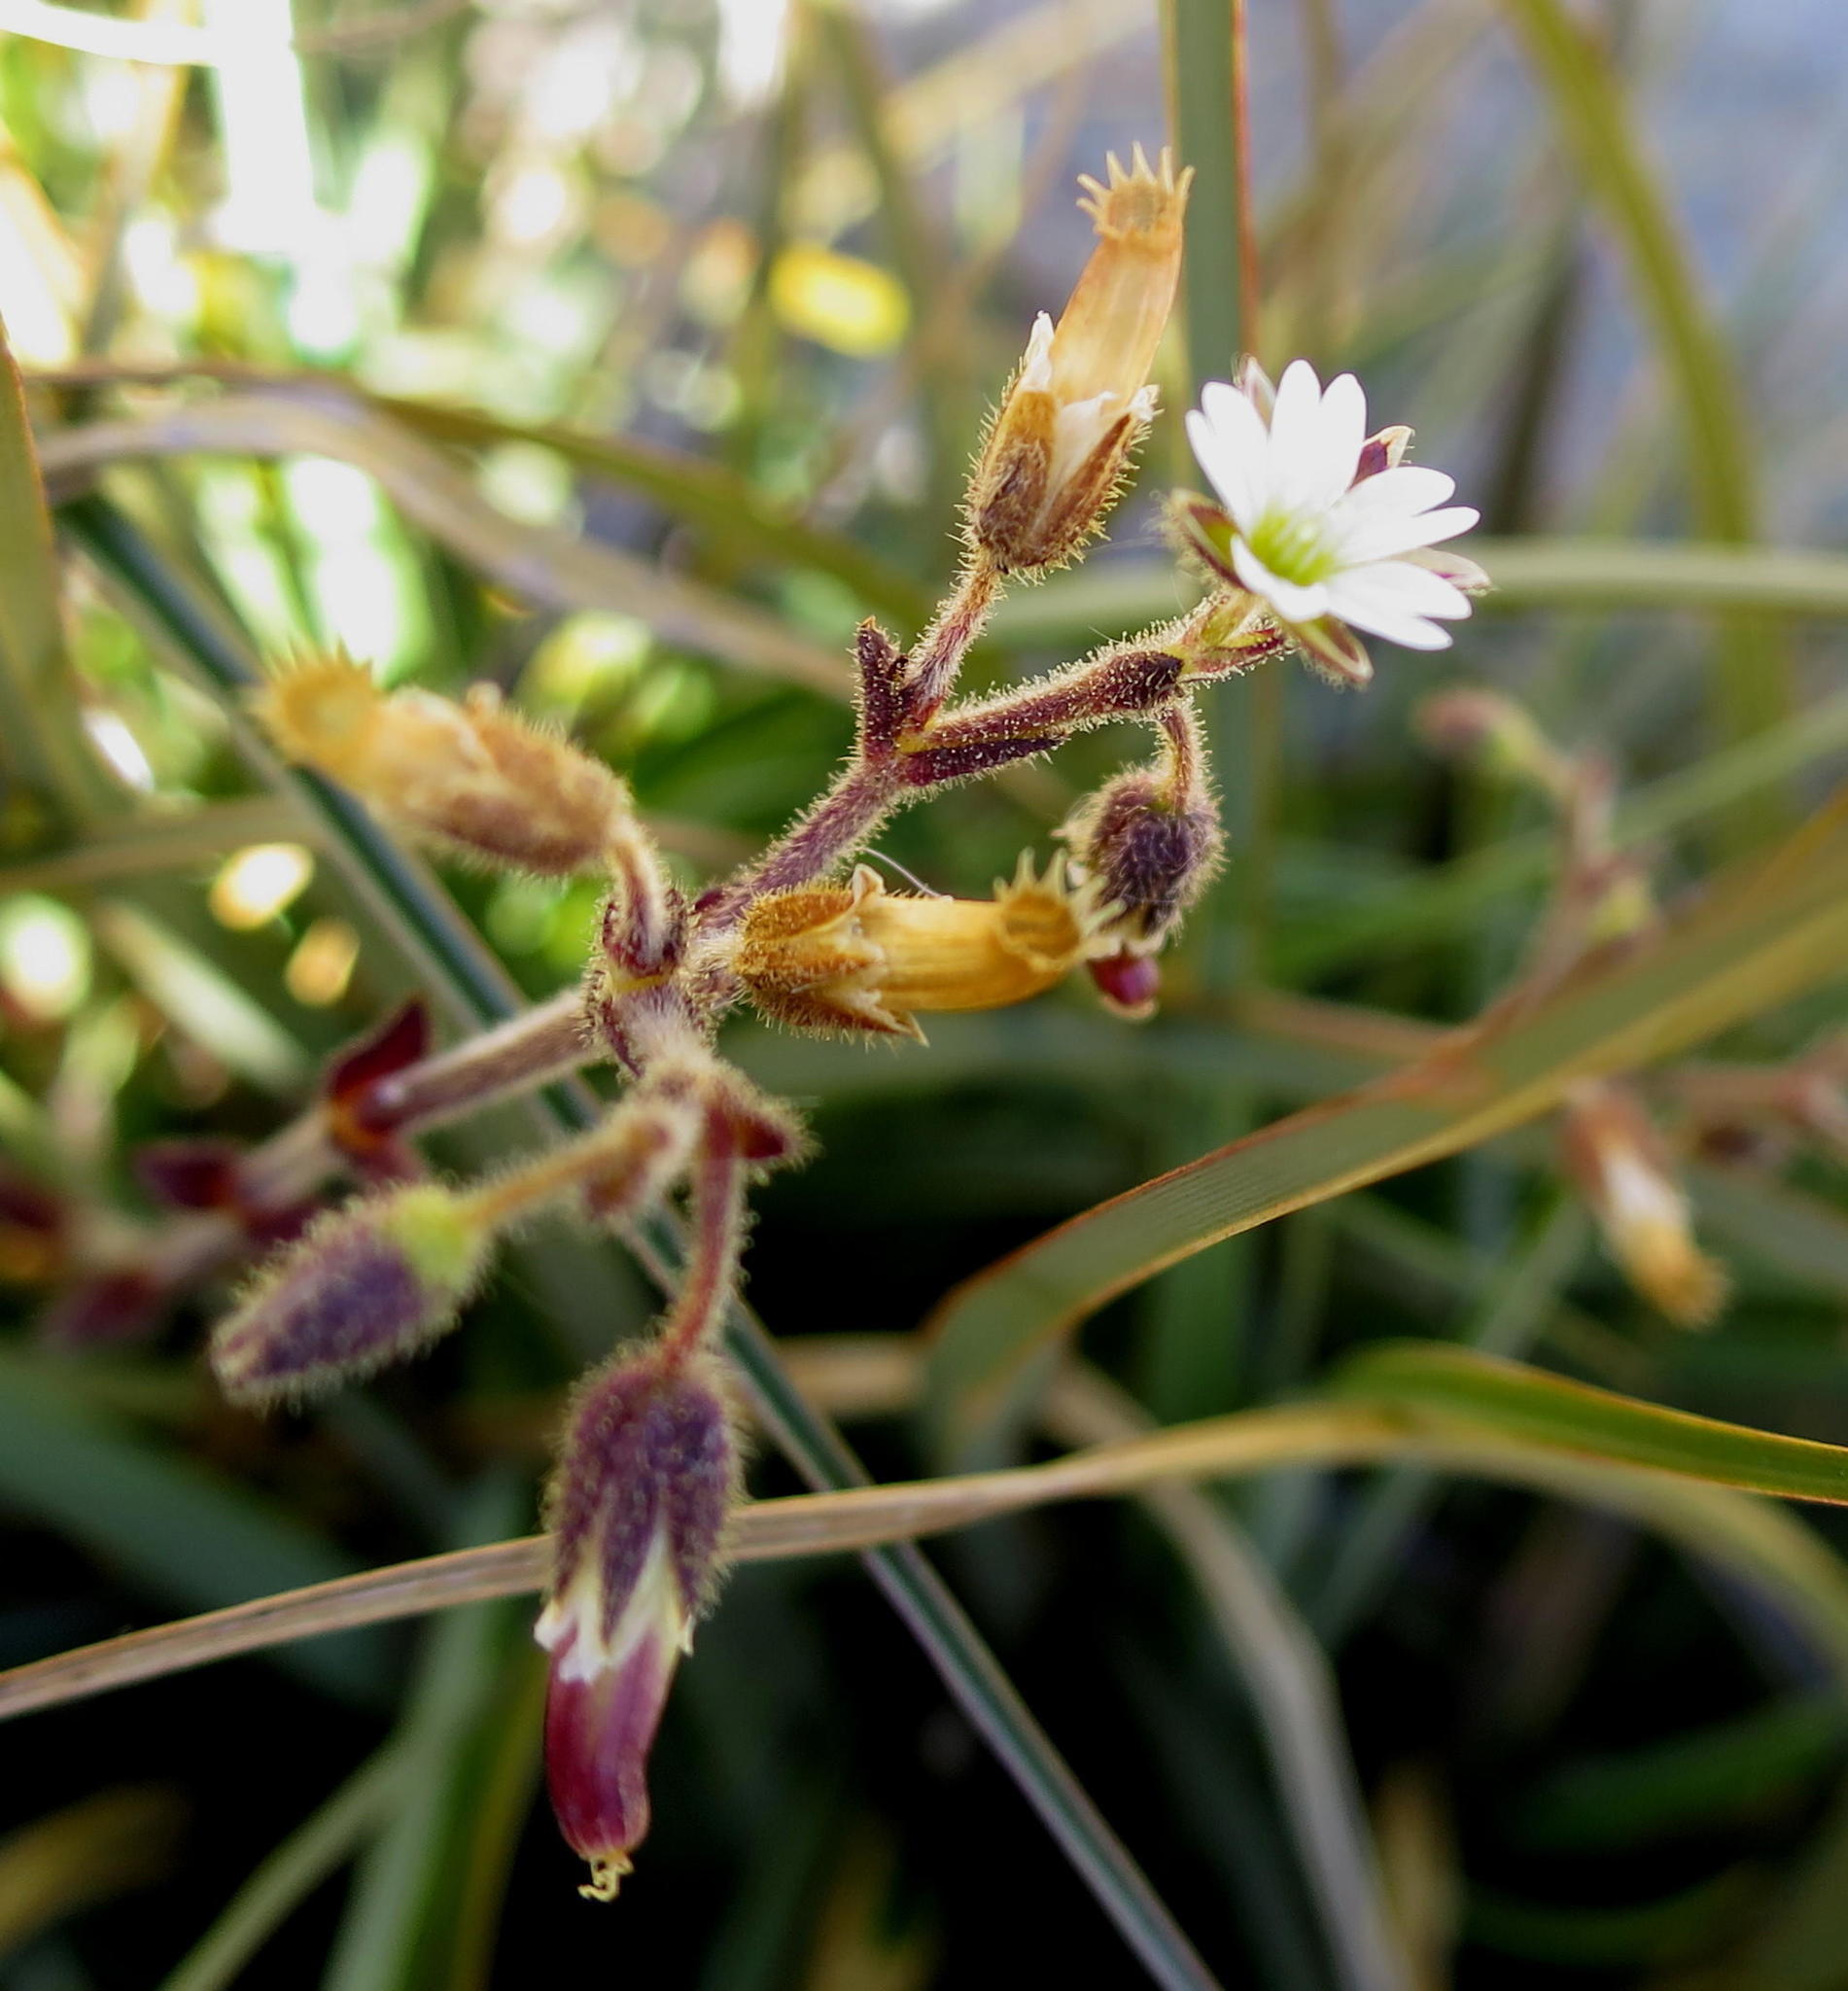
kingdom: Plantae
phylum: Tracheophyta
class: Magnoliopsida
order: Caryophyllales
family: Caryophyllaceae
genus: Cerastium
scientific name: Cerastium capense
